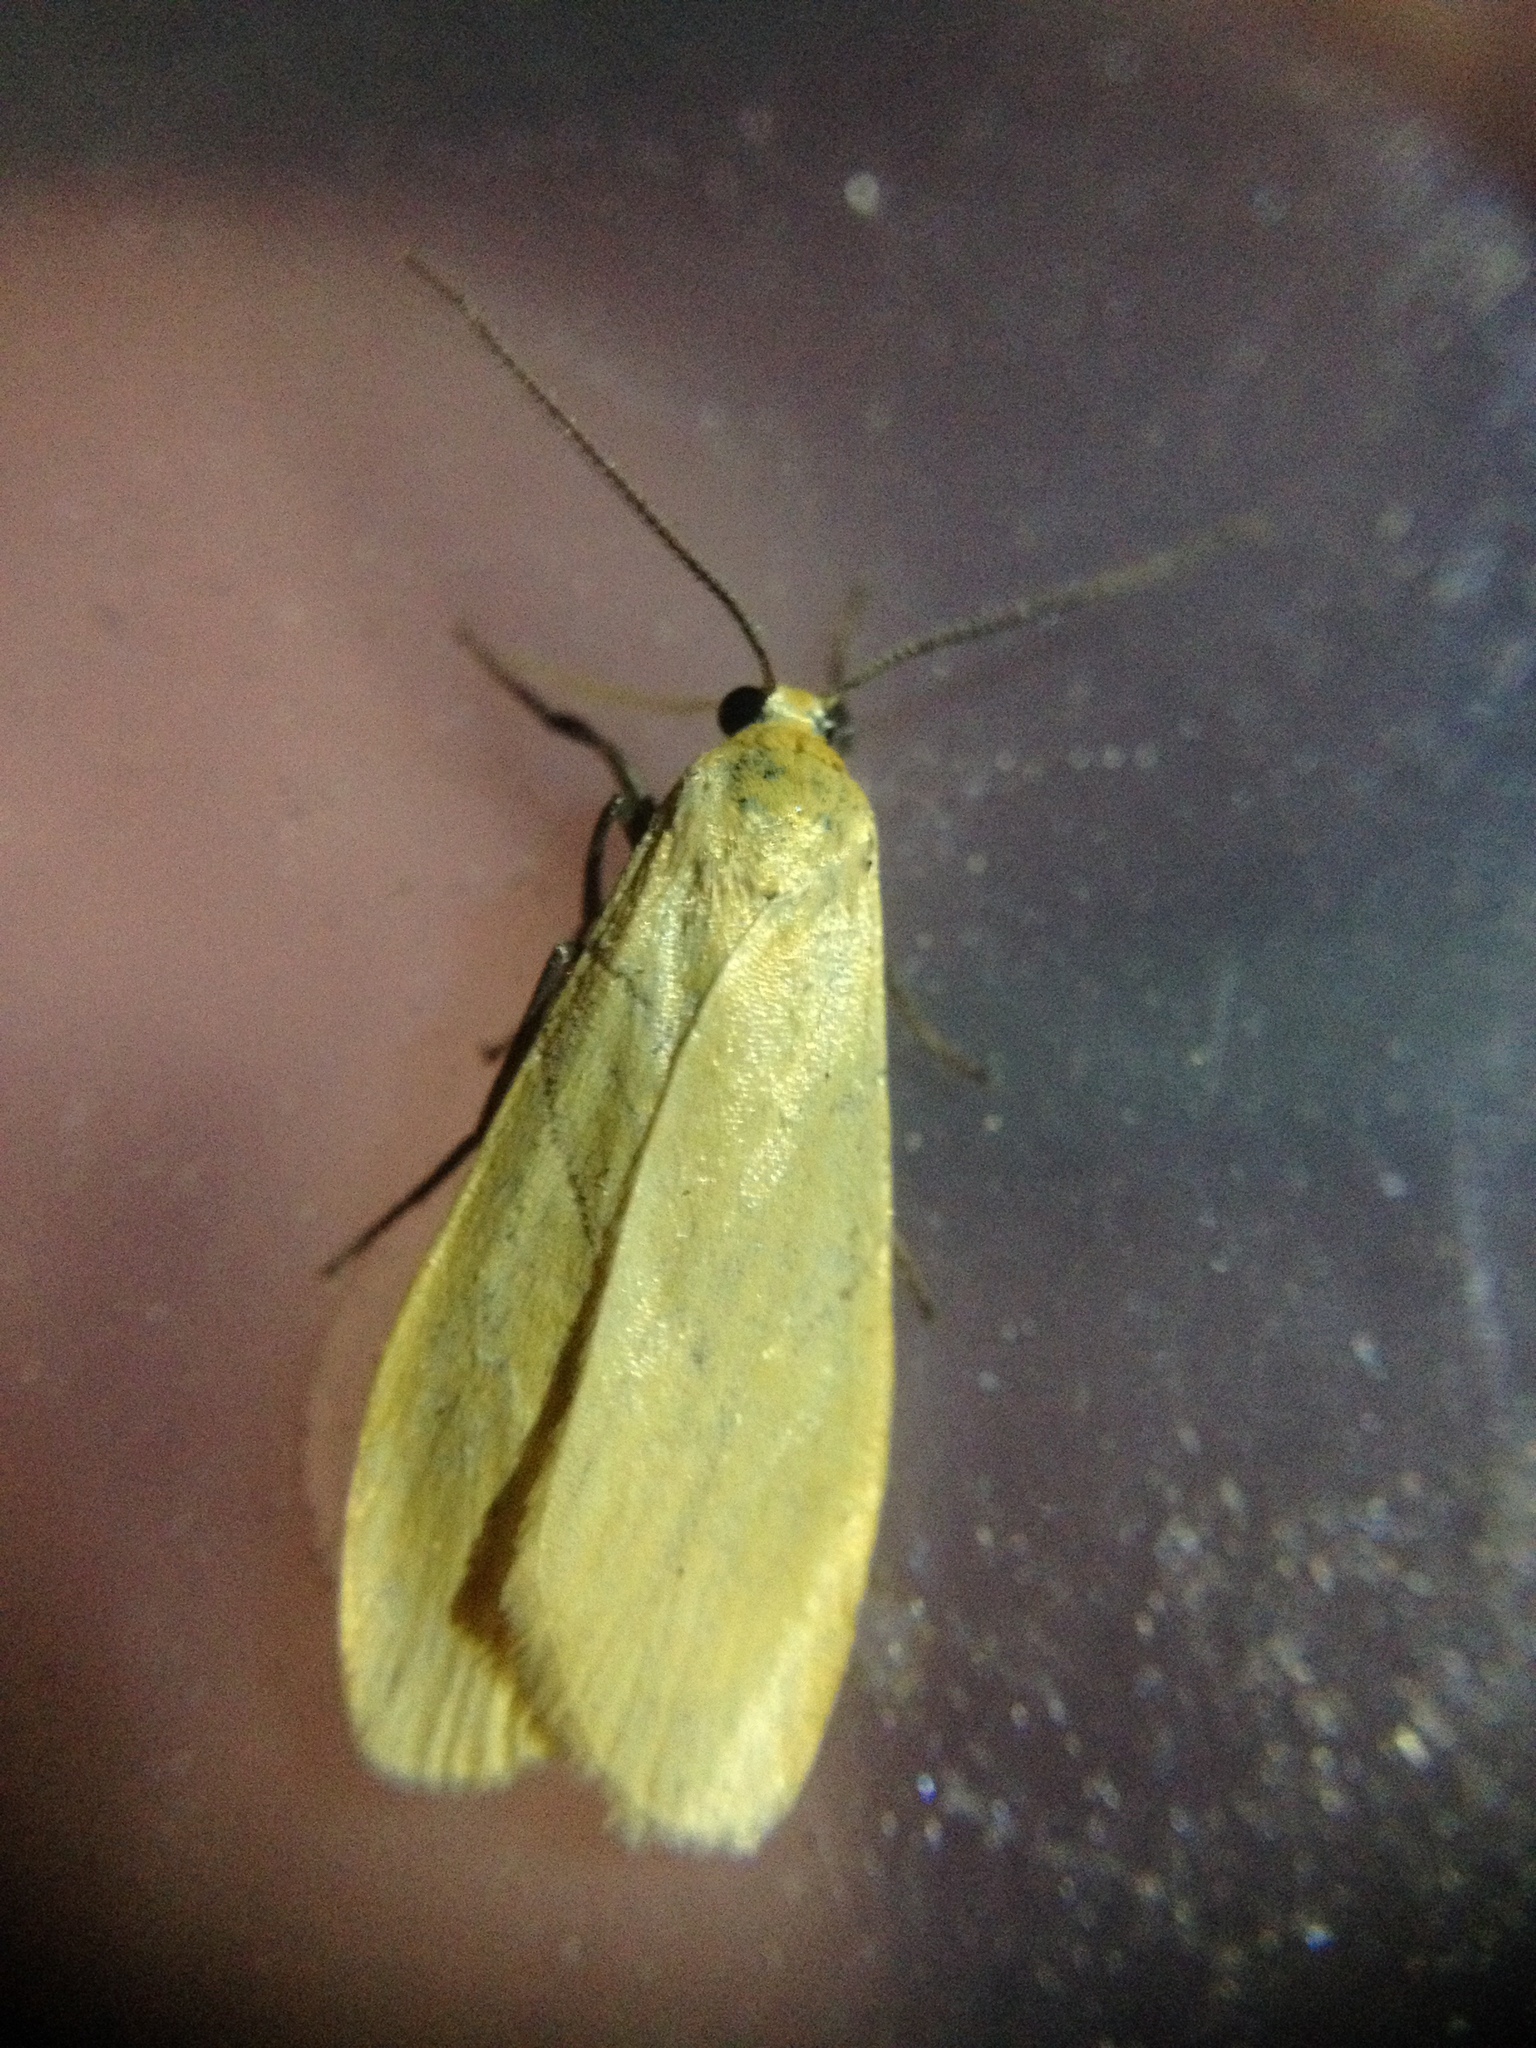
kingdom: Animalia
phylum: Arthropoda
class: Insecta
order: Lepidoptera
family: Erebidae
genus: Wittia
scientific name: Wittia sororcula
